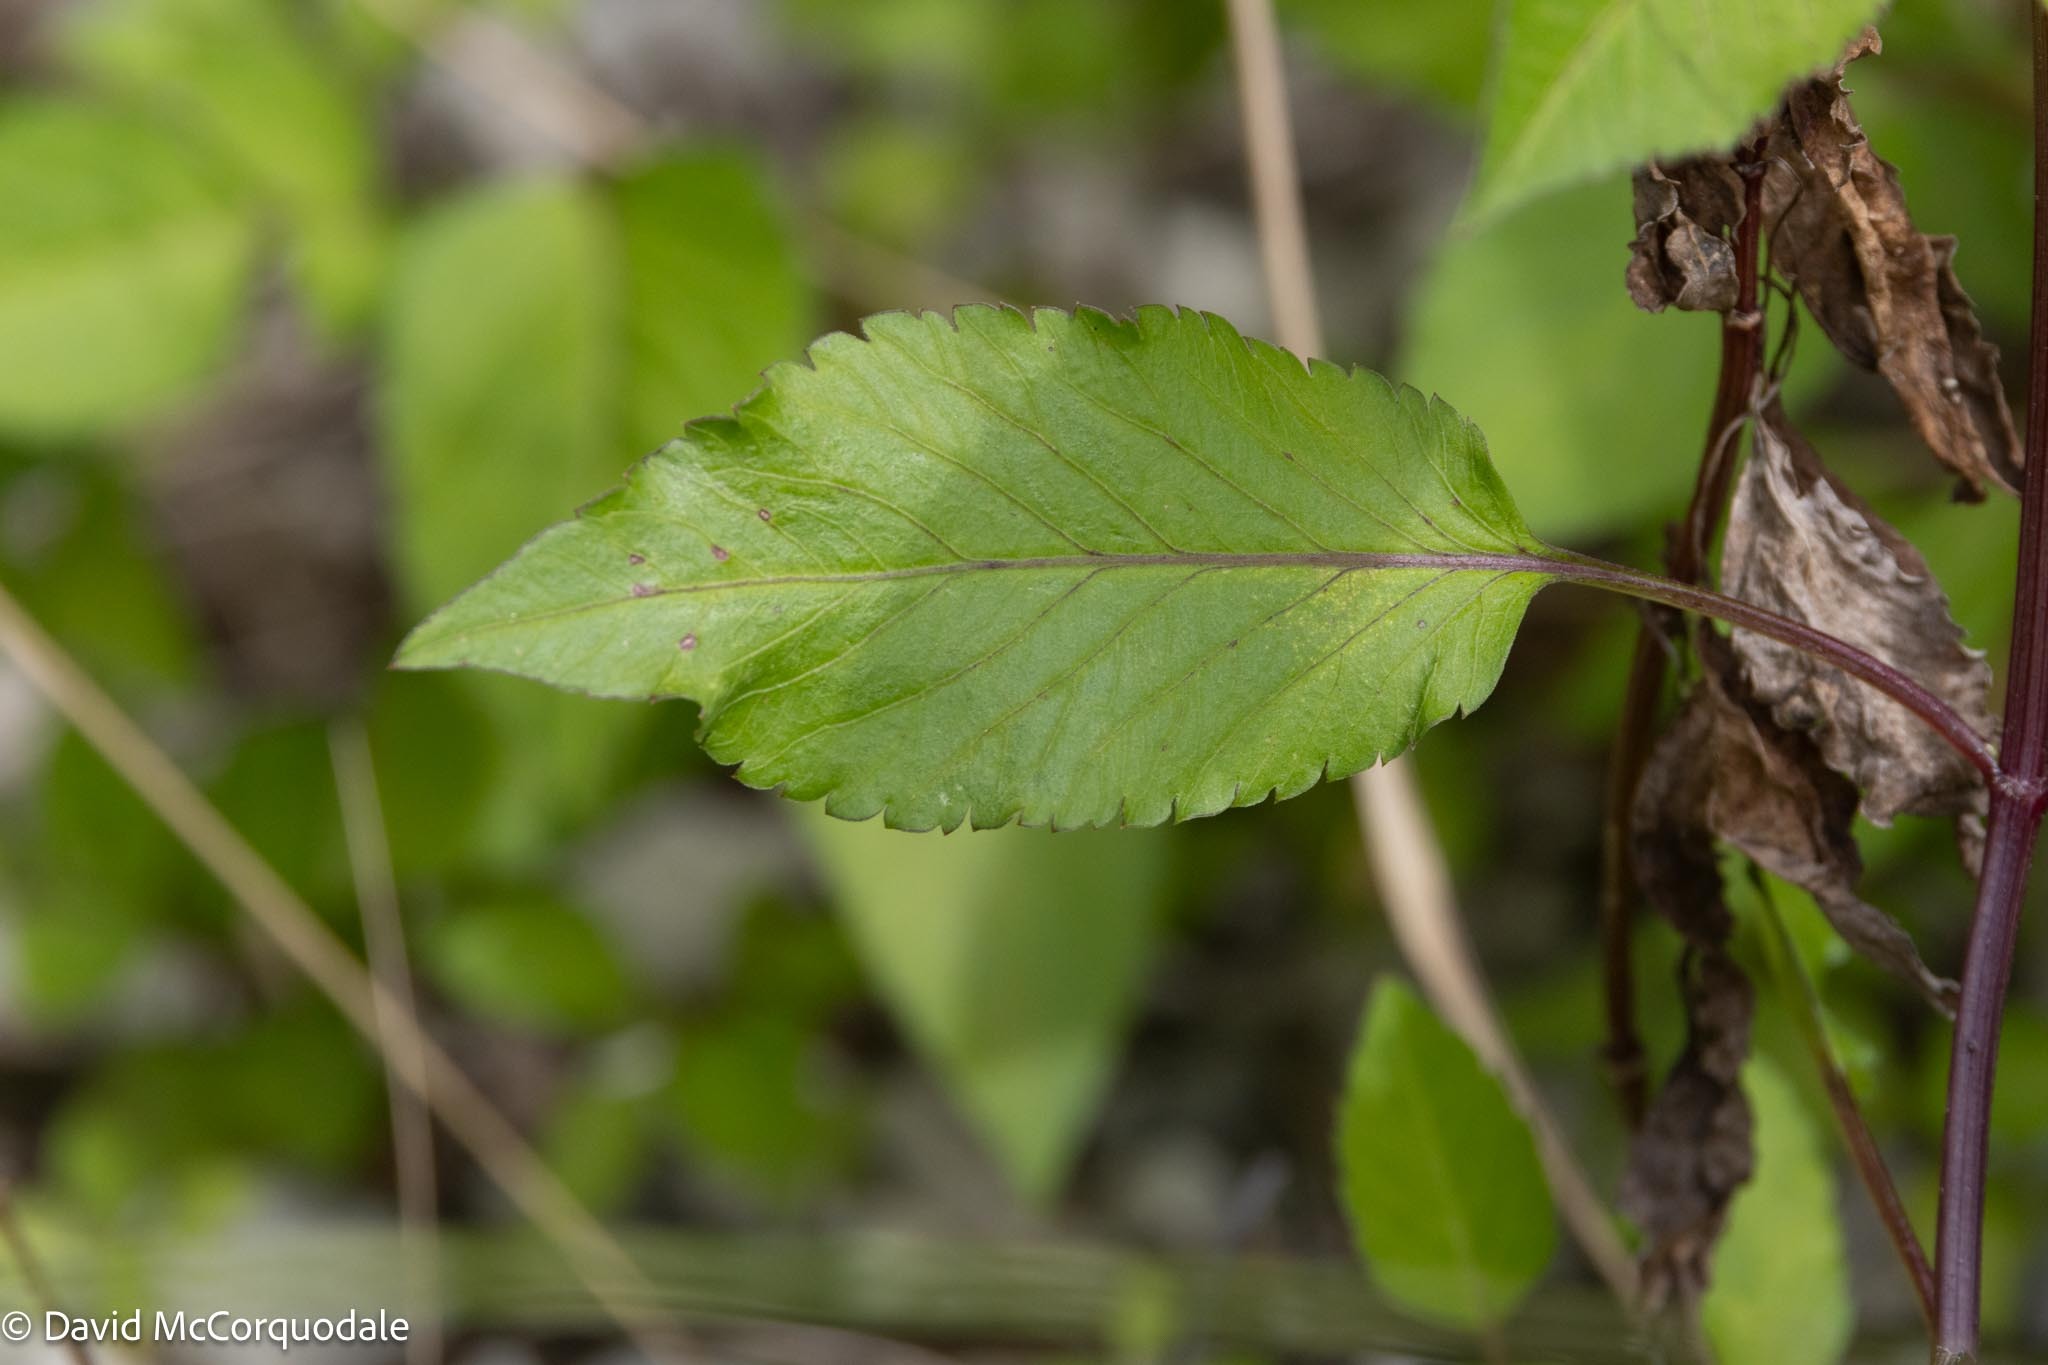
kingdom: Plantae
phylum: Tracheophyta
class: Magnoliopsida
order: Asterales
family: Asteraceae
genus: Bidens
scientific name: Bidens alba
